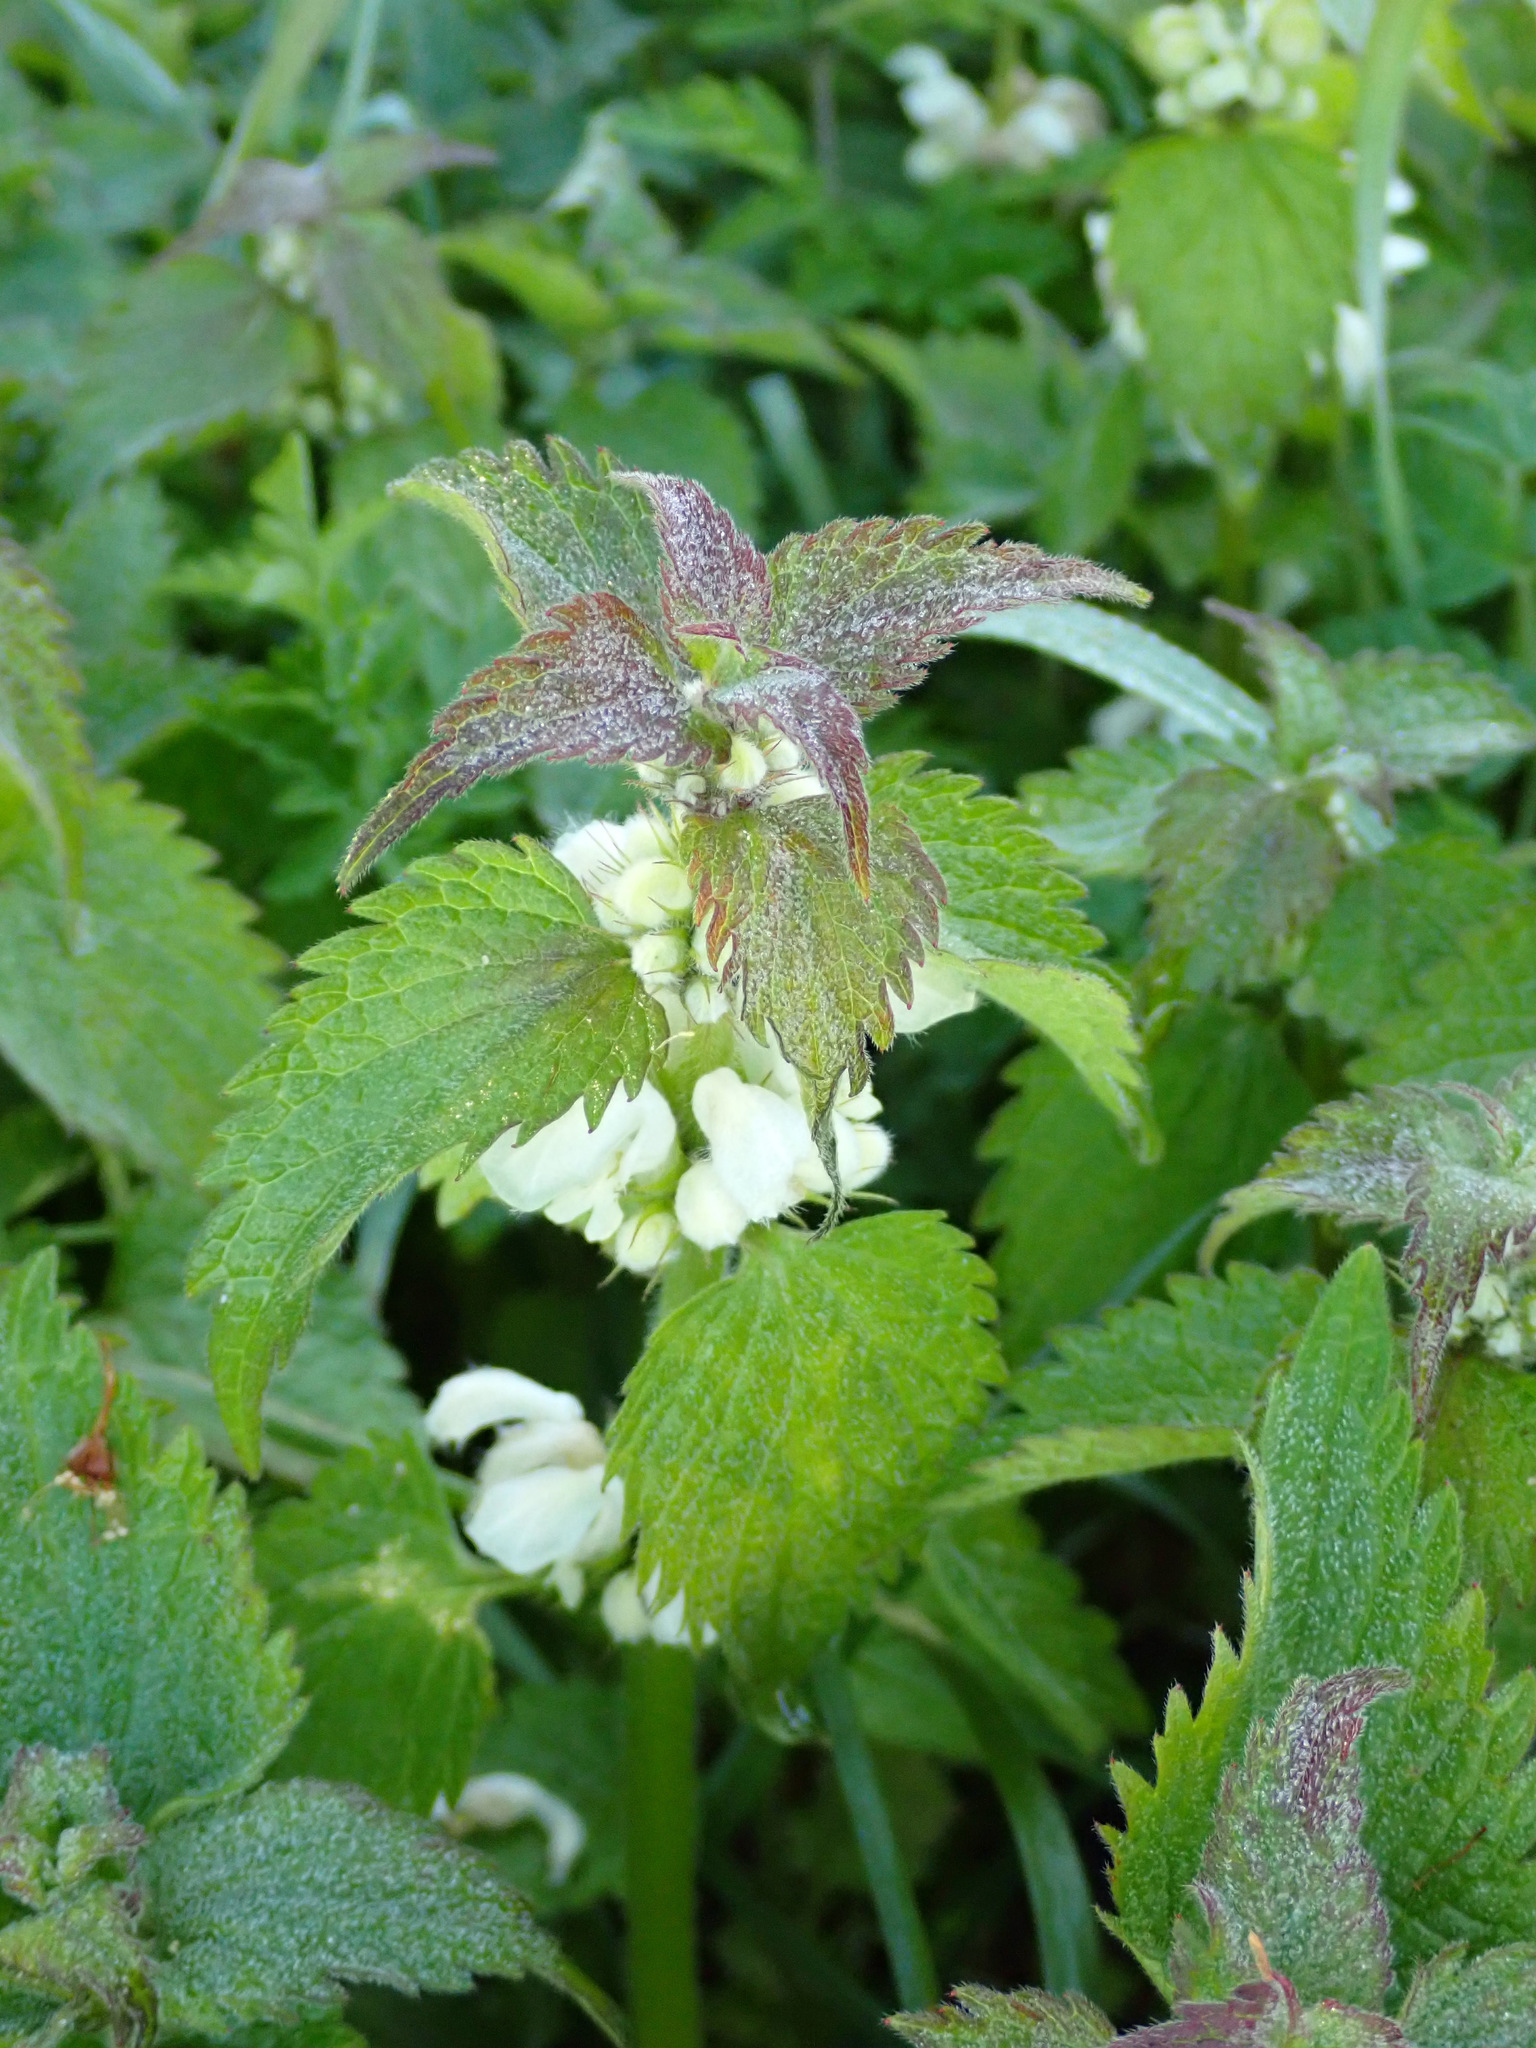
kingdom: Plantae
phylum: Tracheophyta
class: Magnoliopsida
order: Lamiales
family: Lamiaceae
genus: Lamium
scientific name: Lamium album
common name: White dead-nettle
